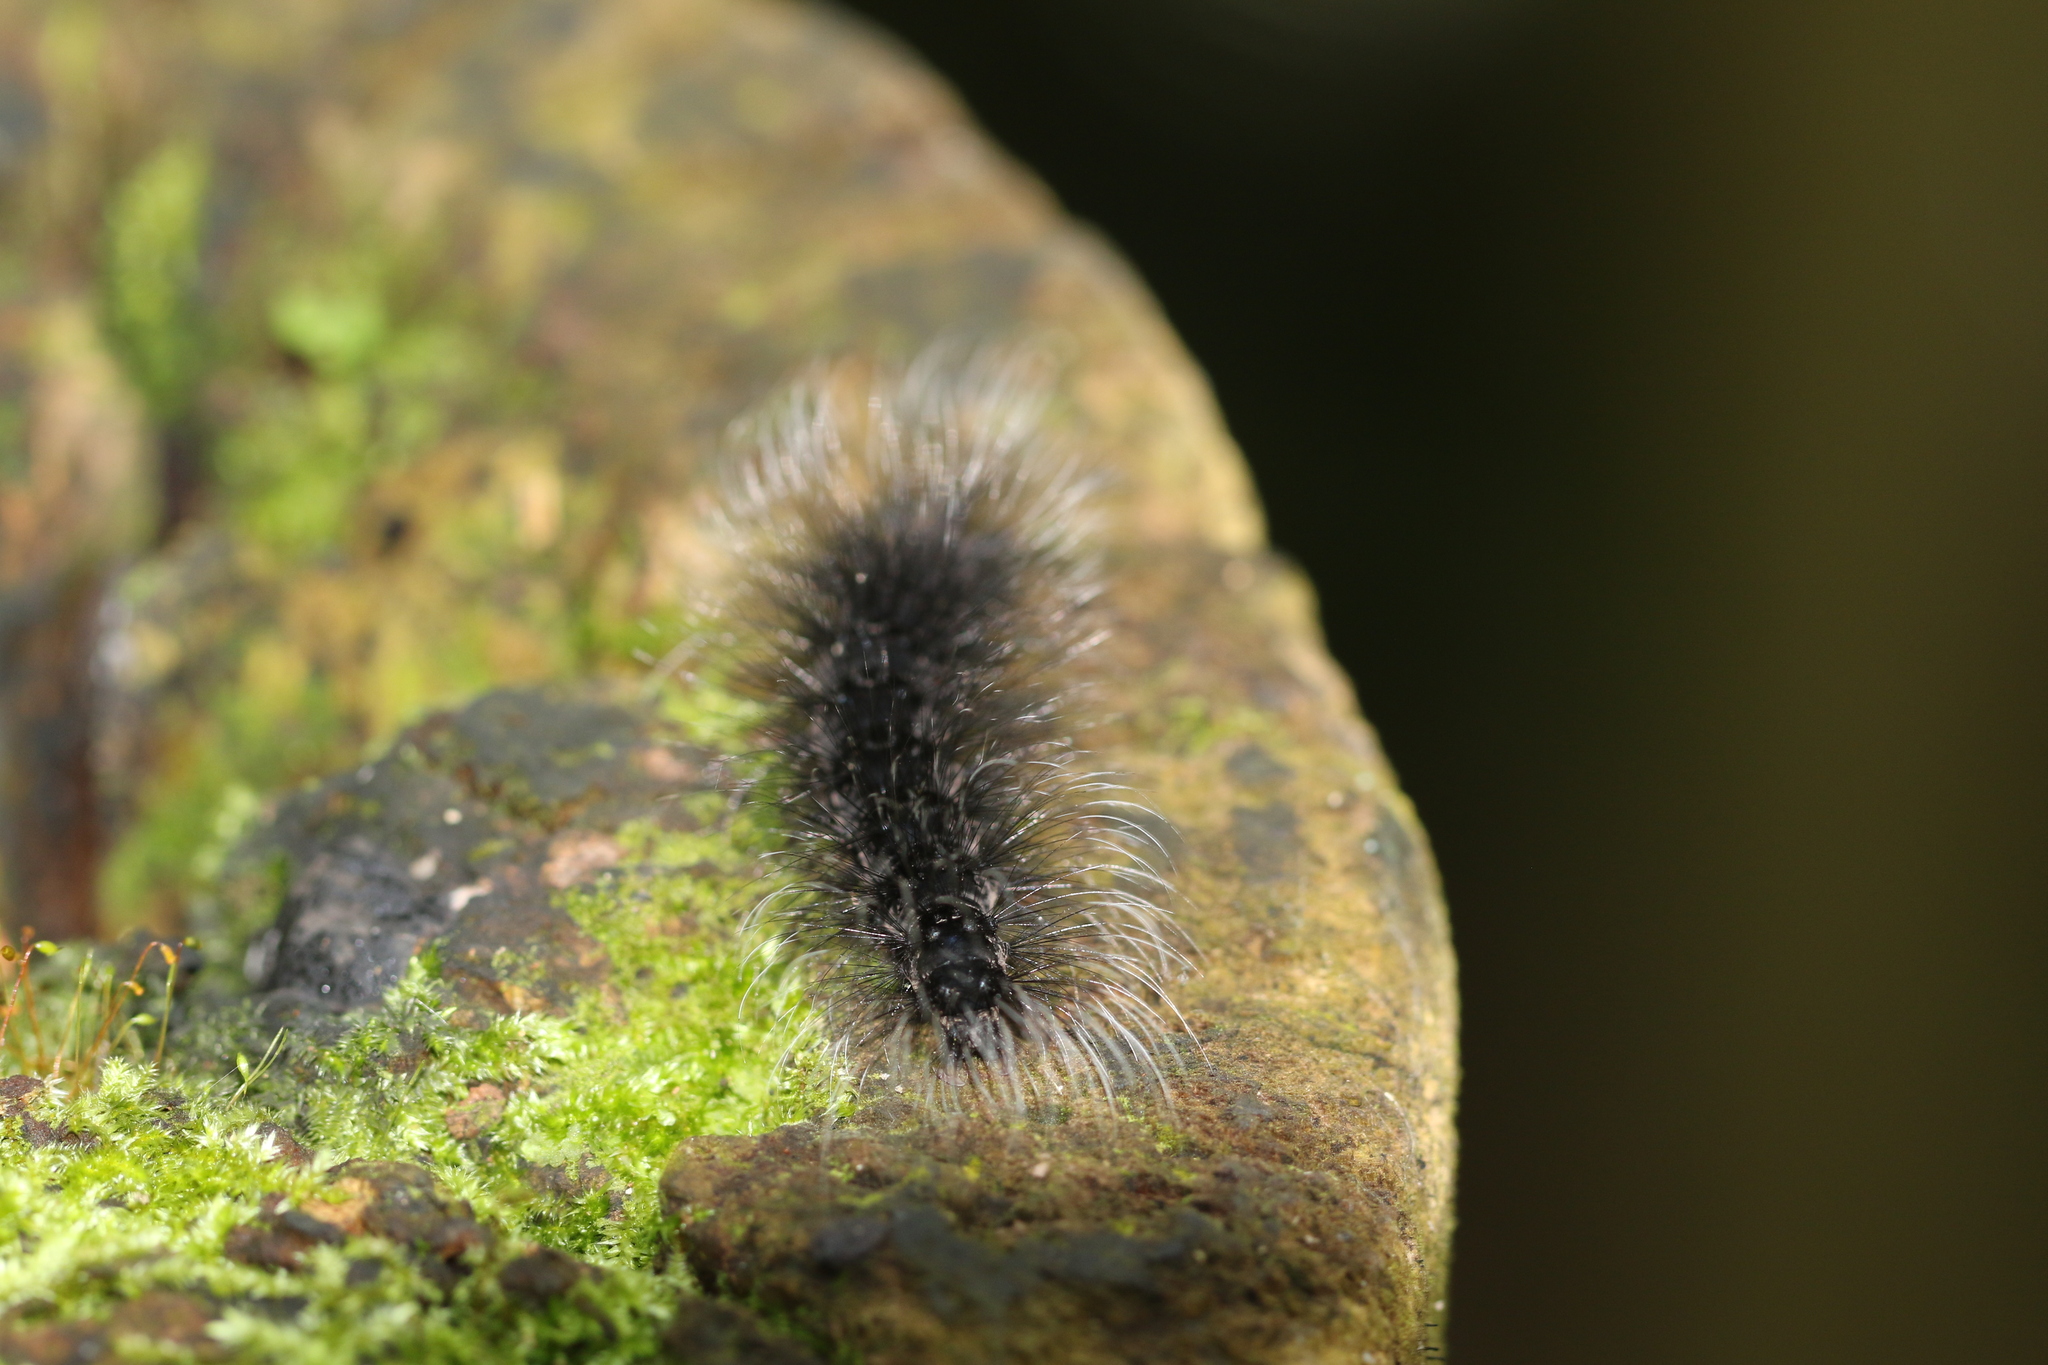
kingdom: Animalia
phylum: Arthropoda
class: Insecta
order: Lepidoptera
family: Erebidae
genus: Apistosia
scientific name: Apistosia judas
